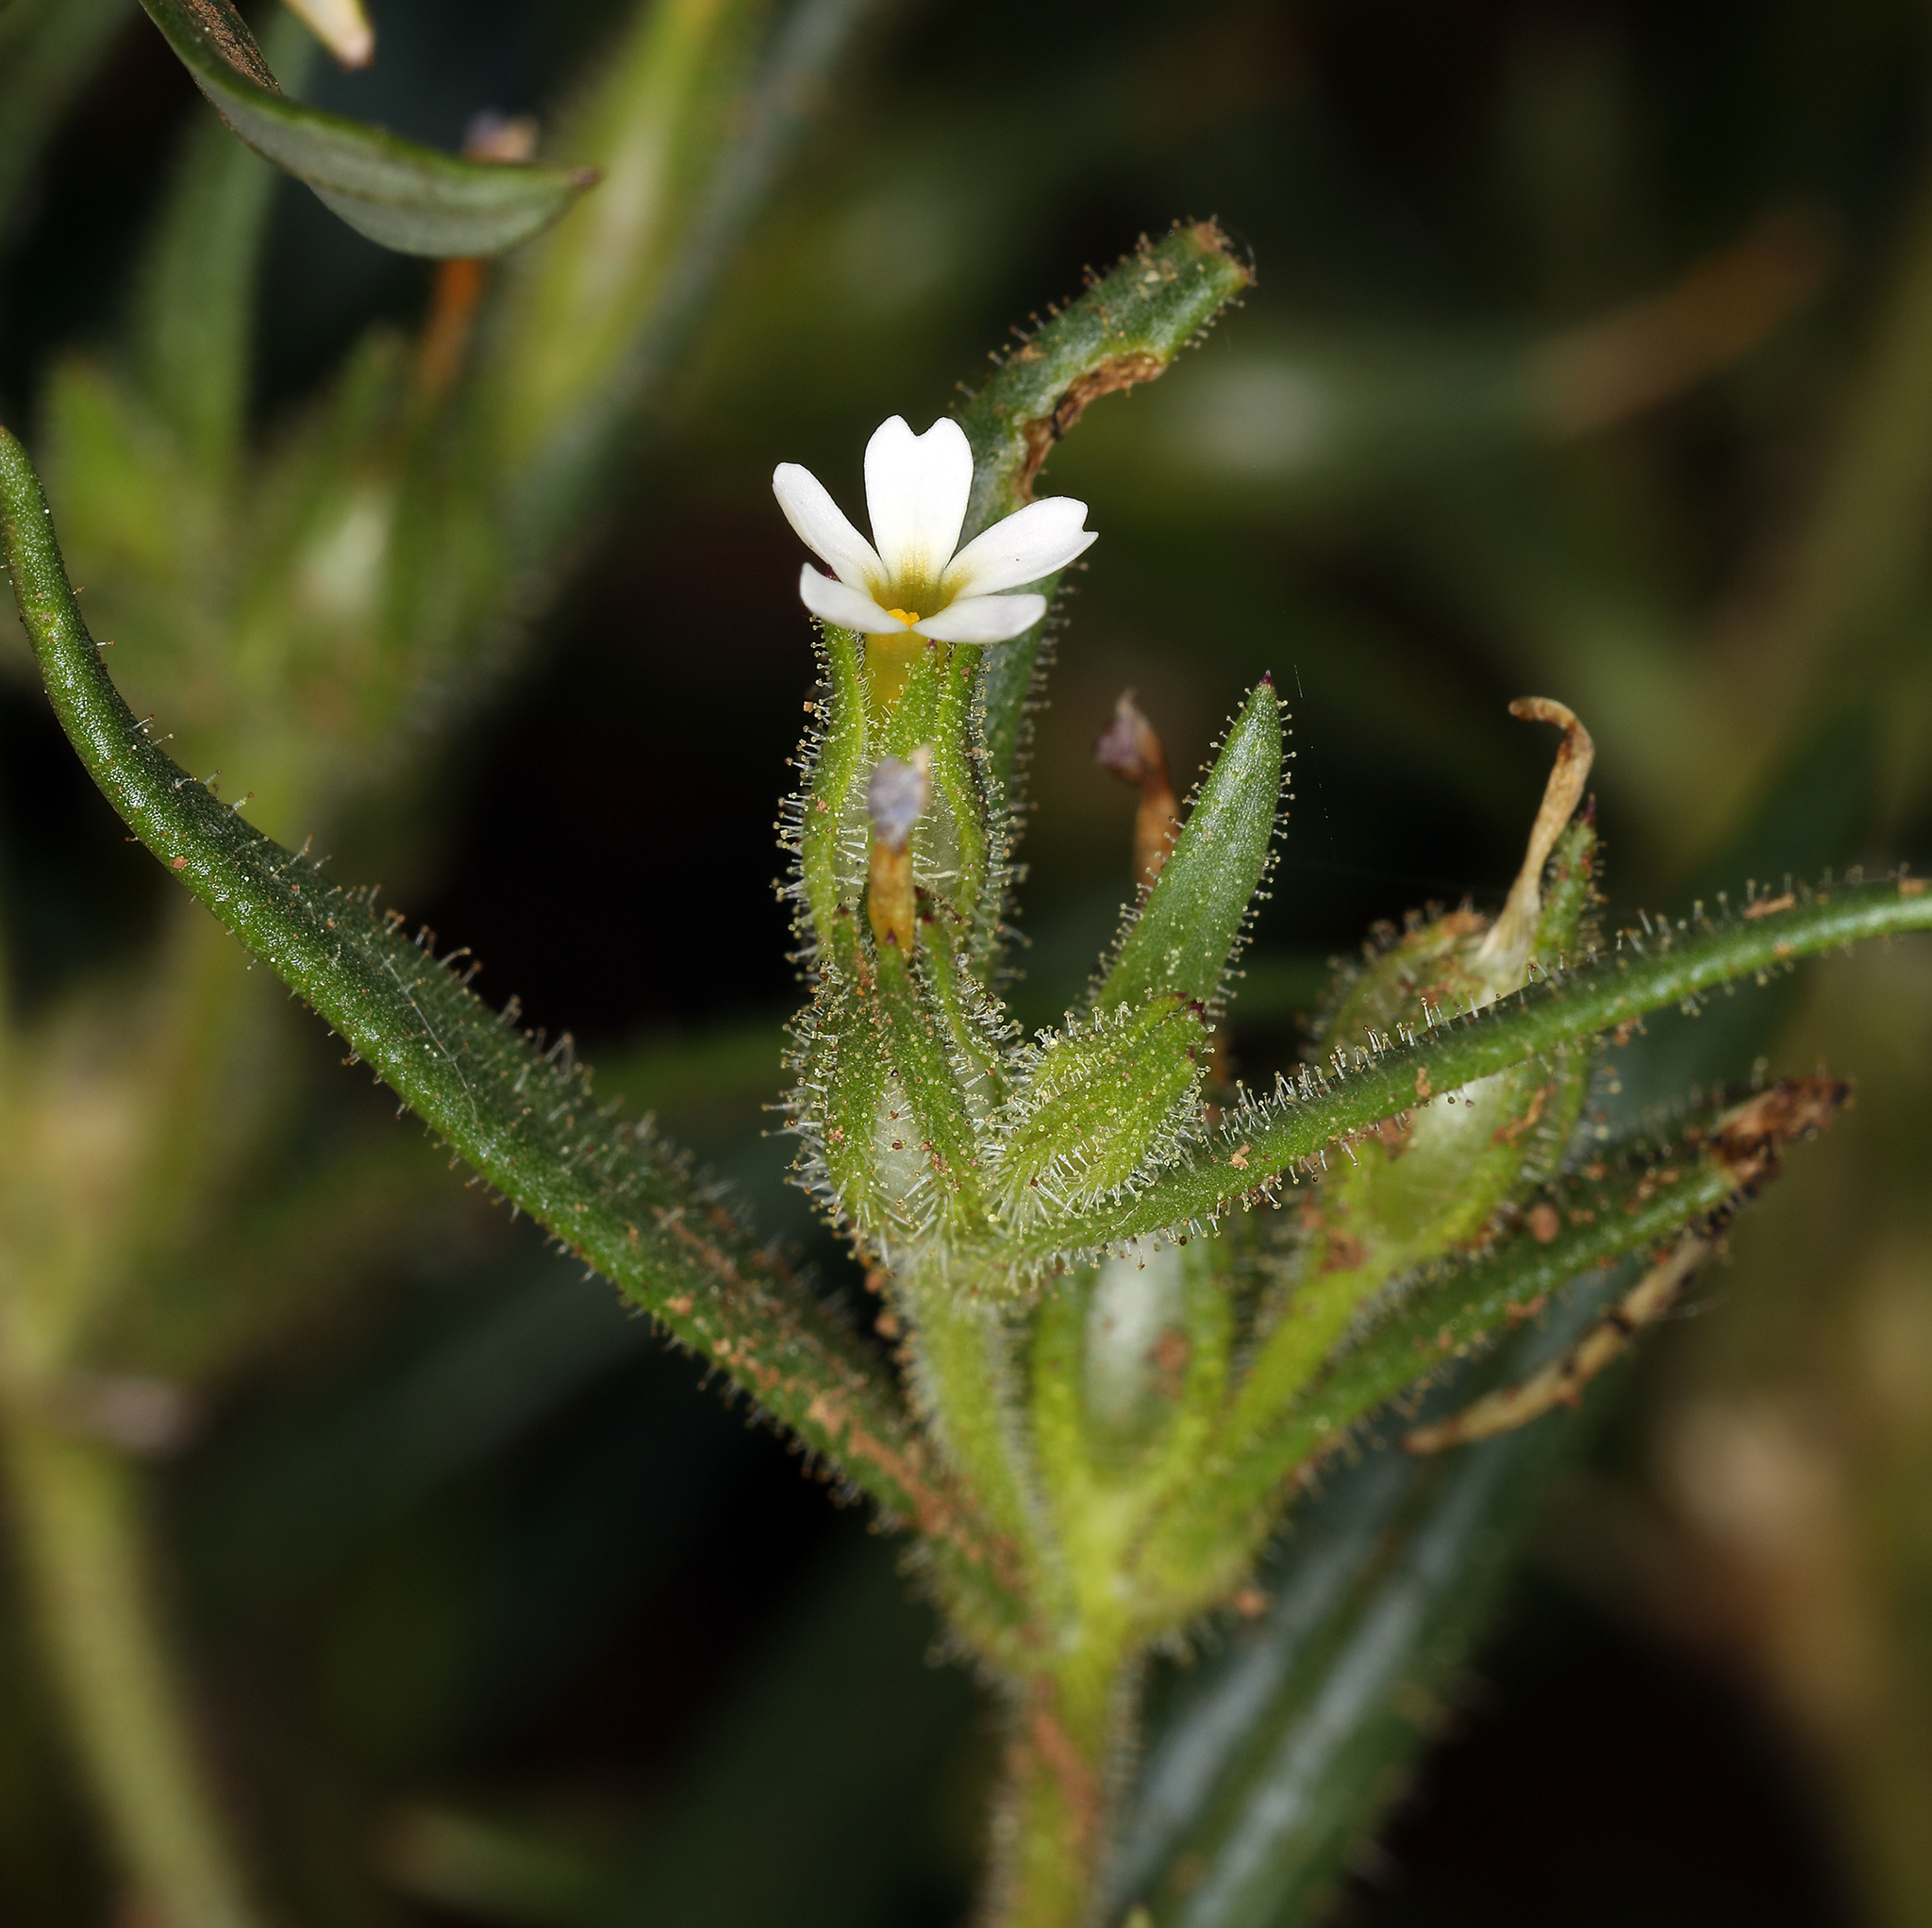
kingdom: Plantae
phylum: Tracheophyta
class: Magnoliopsida
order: Ericales
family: Polemoniaceae
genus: Phlox
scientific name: Phlox gracilis
